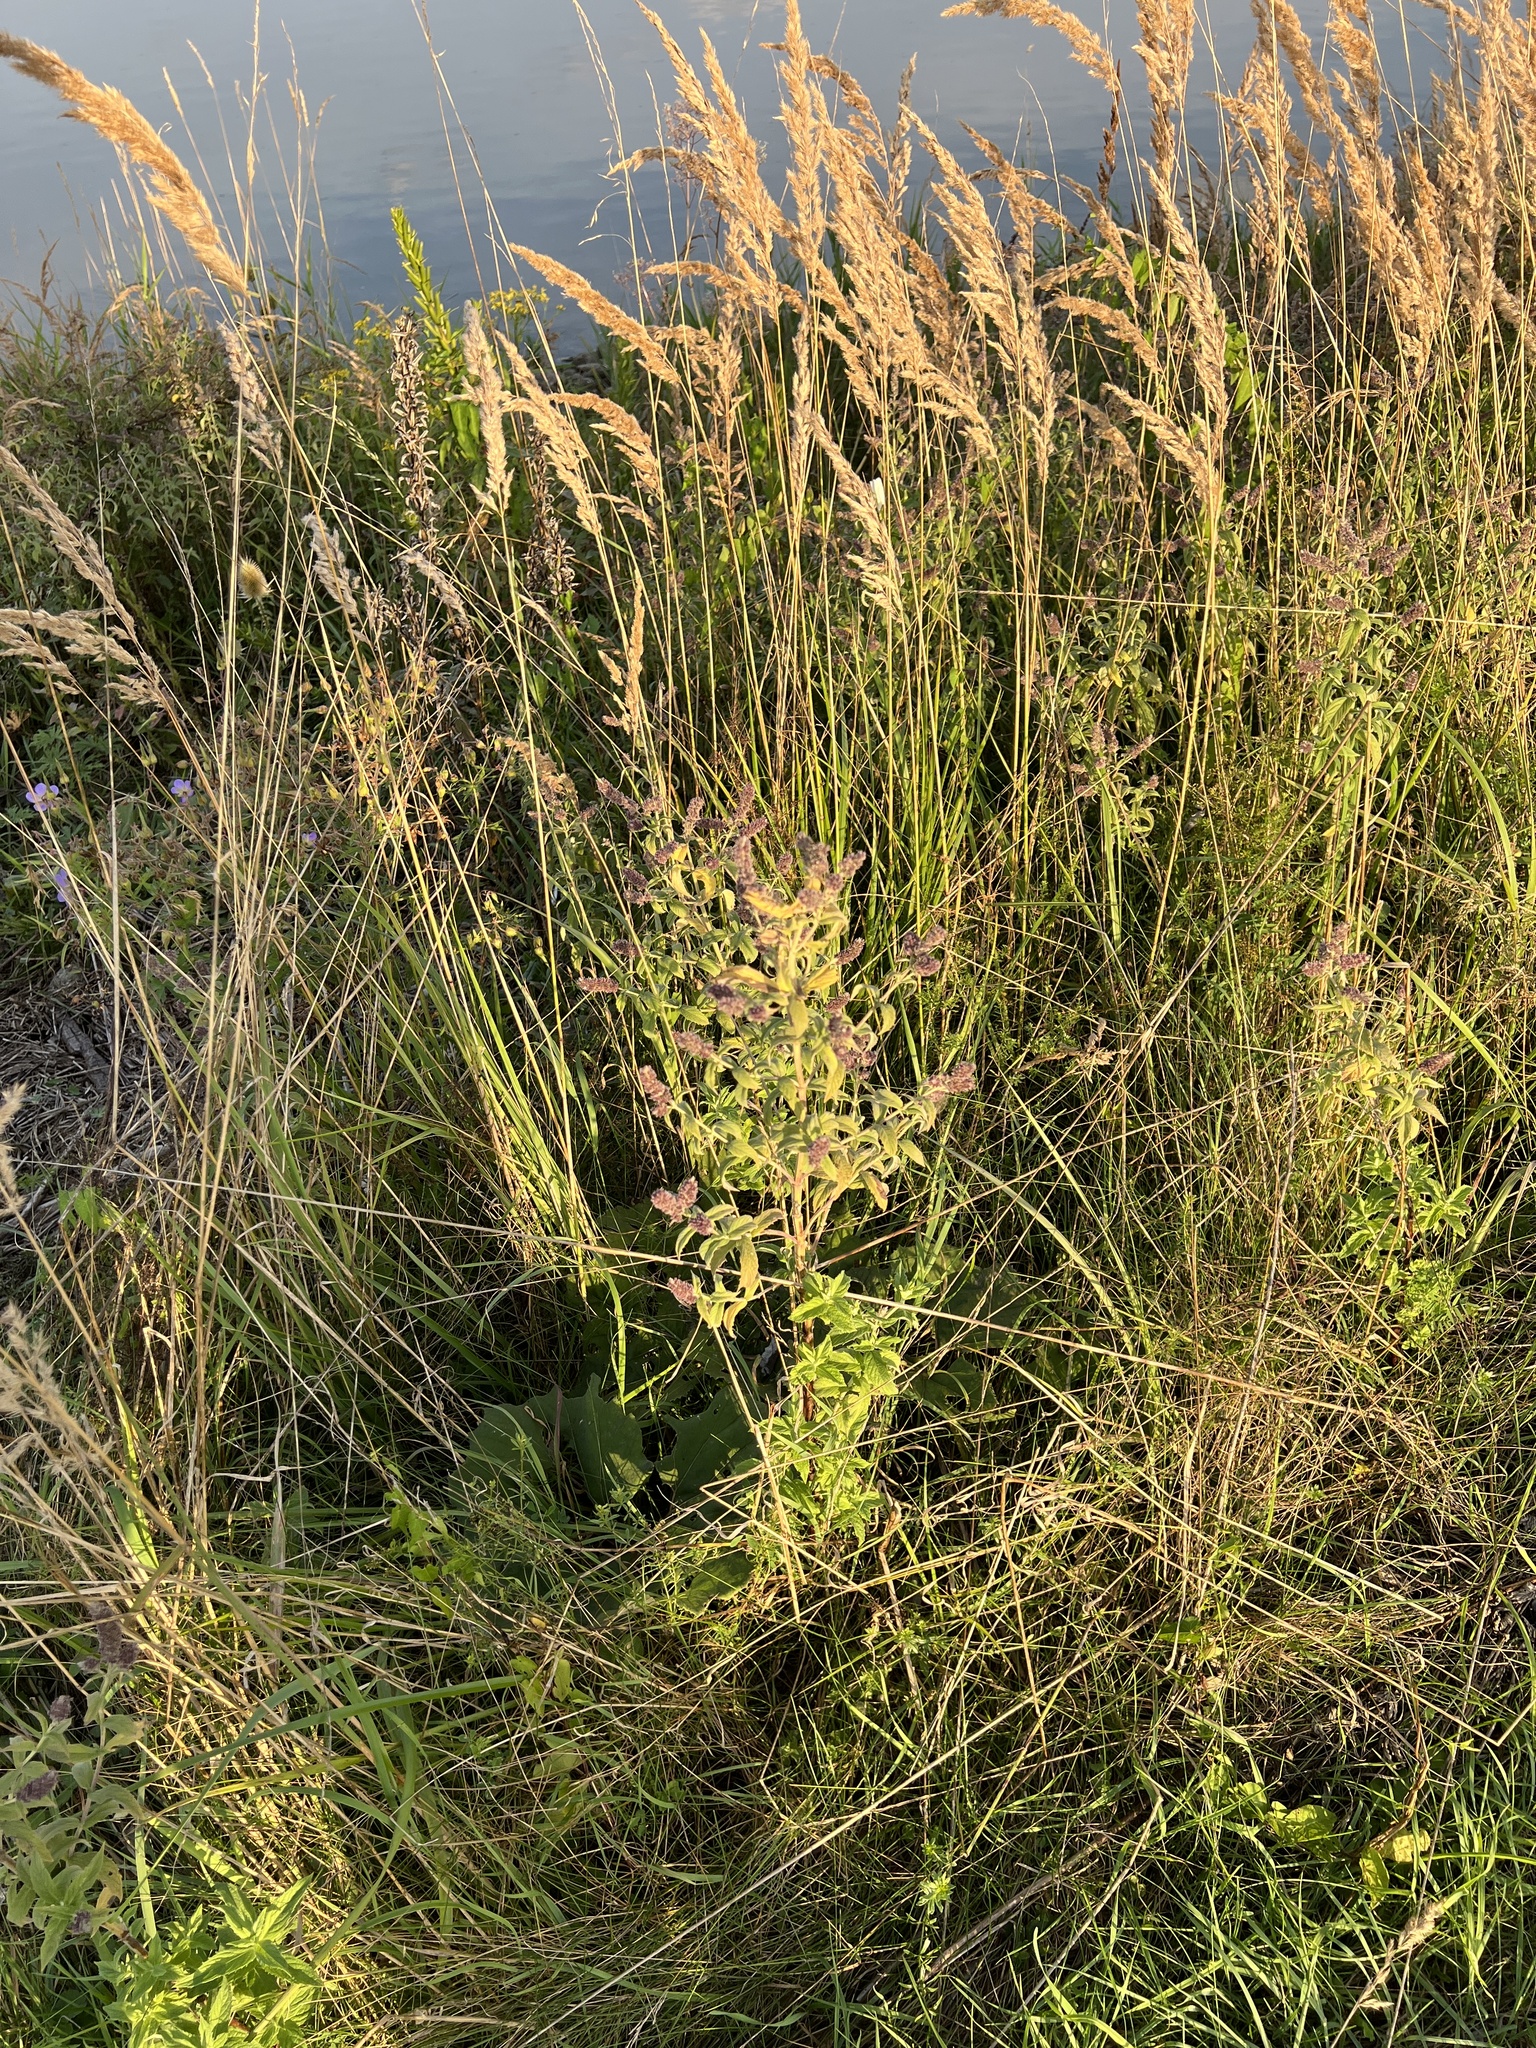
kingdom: Plantae
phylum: Tracheophyta
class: Magnoliopsida
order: Lamiales
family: Lamiaceae
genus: Mentha
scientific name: Mentha longifolia
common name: Horse mint
